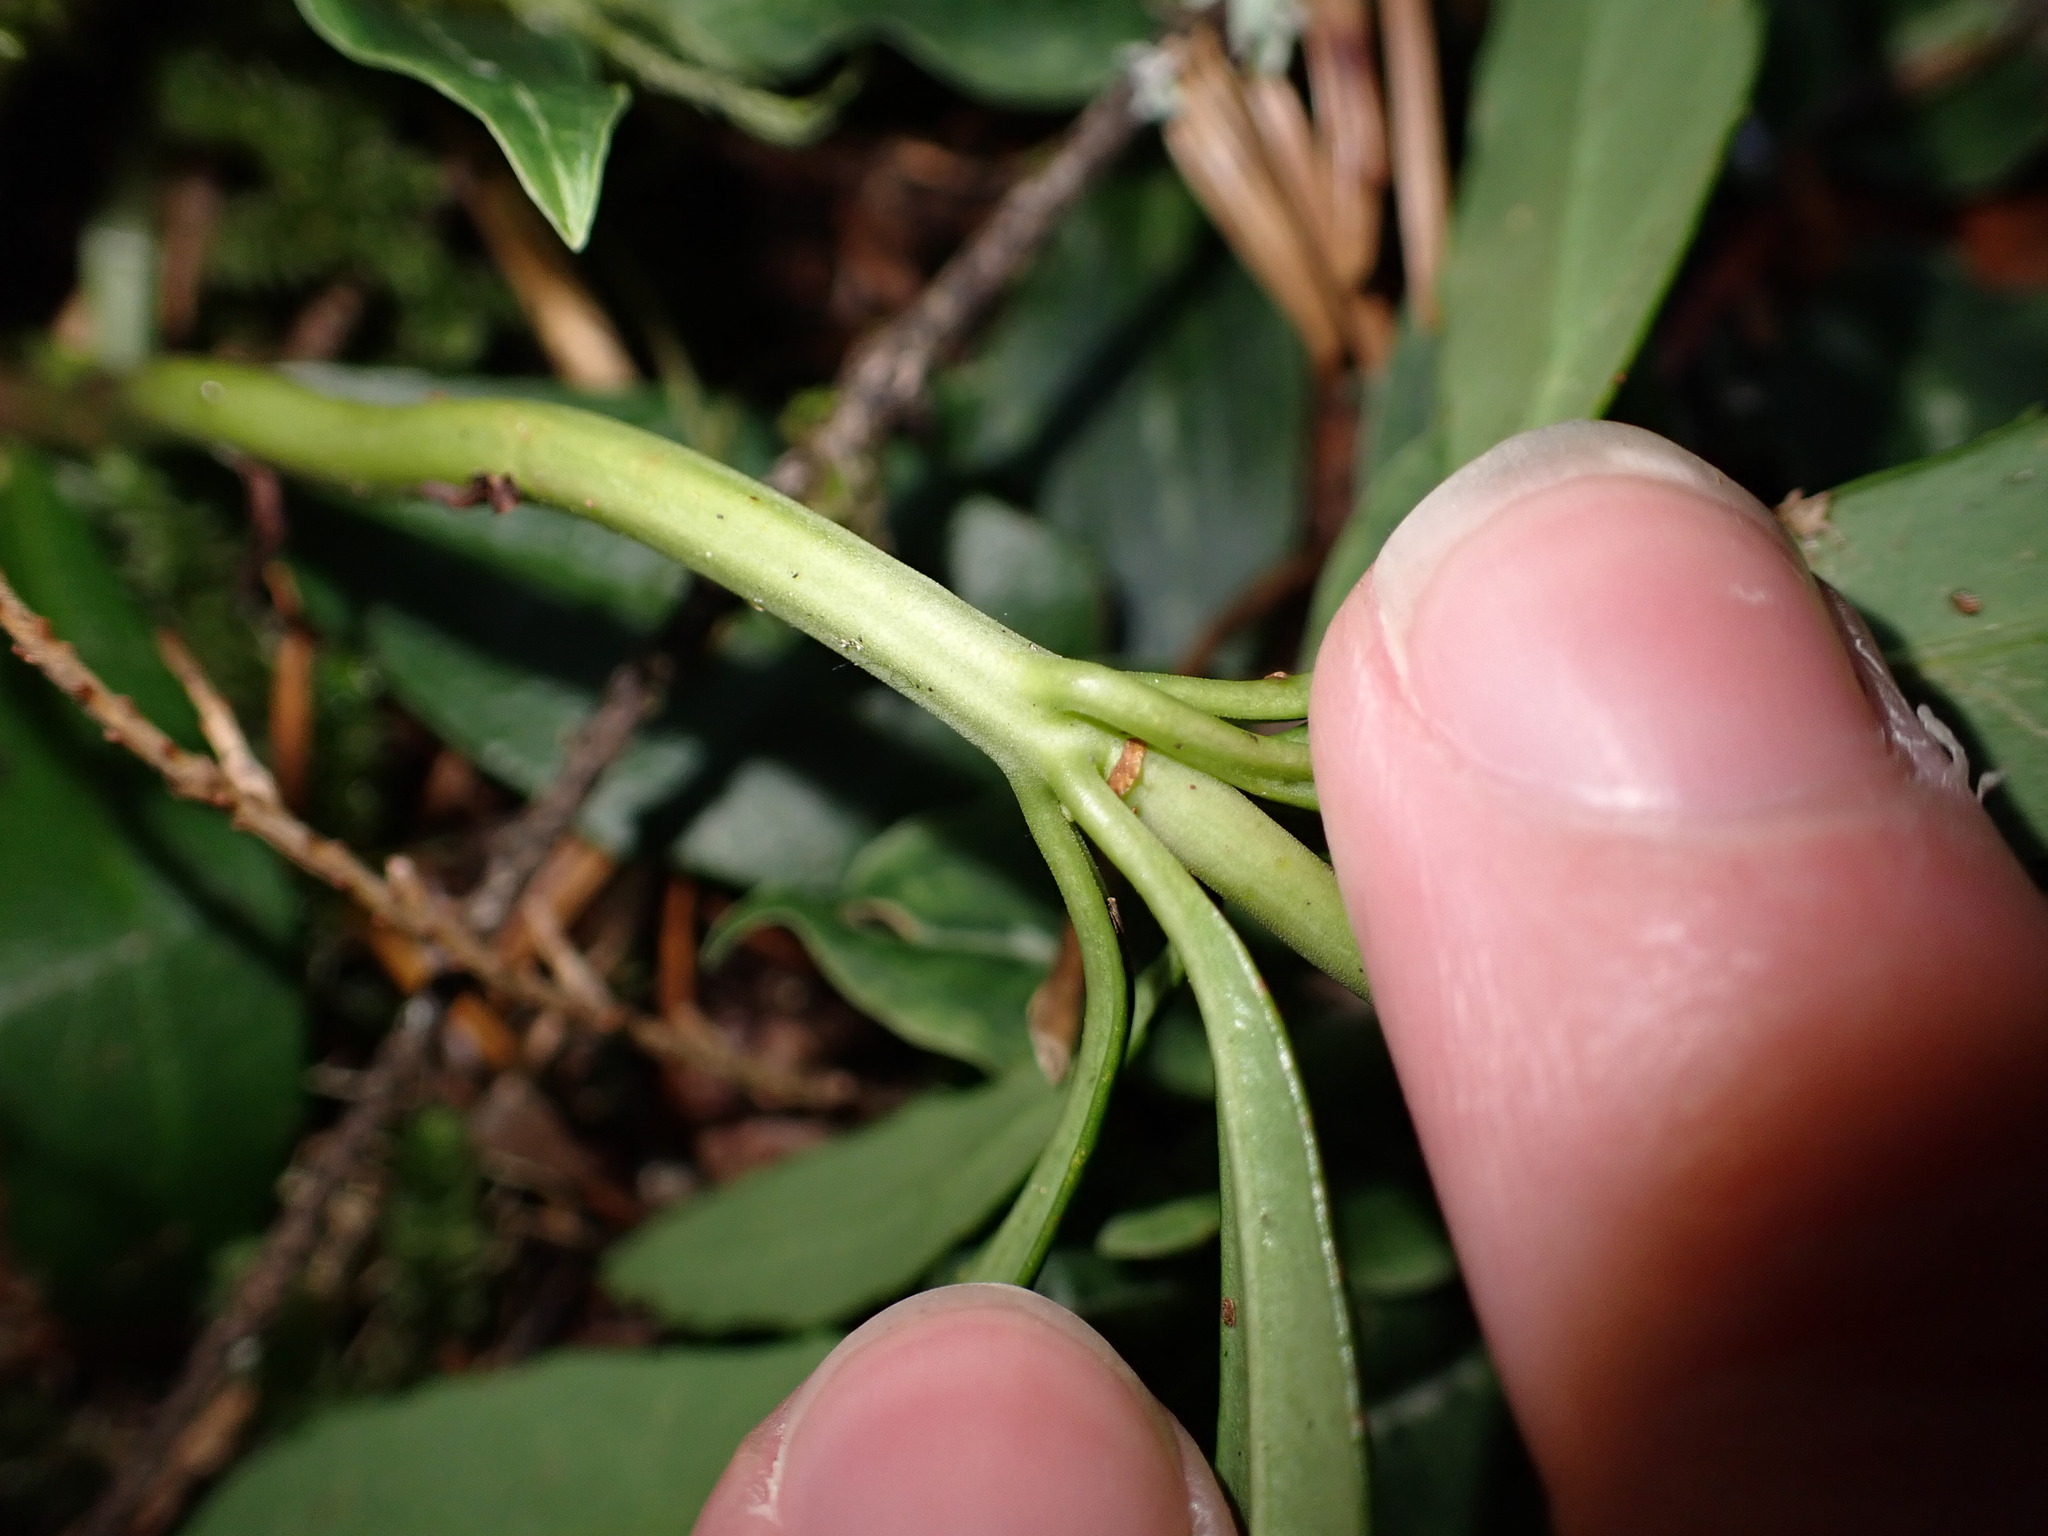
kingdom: Plantae
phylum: Tracheophyta
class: Magnoliopsida
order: Ericales
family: Ericaceae
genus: Chimaphila
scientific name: Chimaphila umbellata
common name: Pipsissewa
